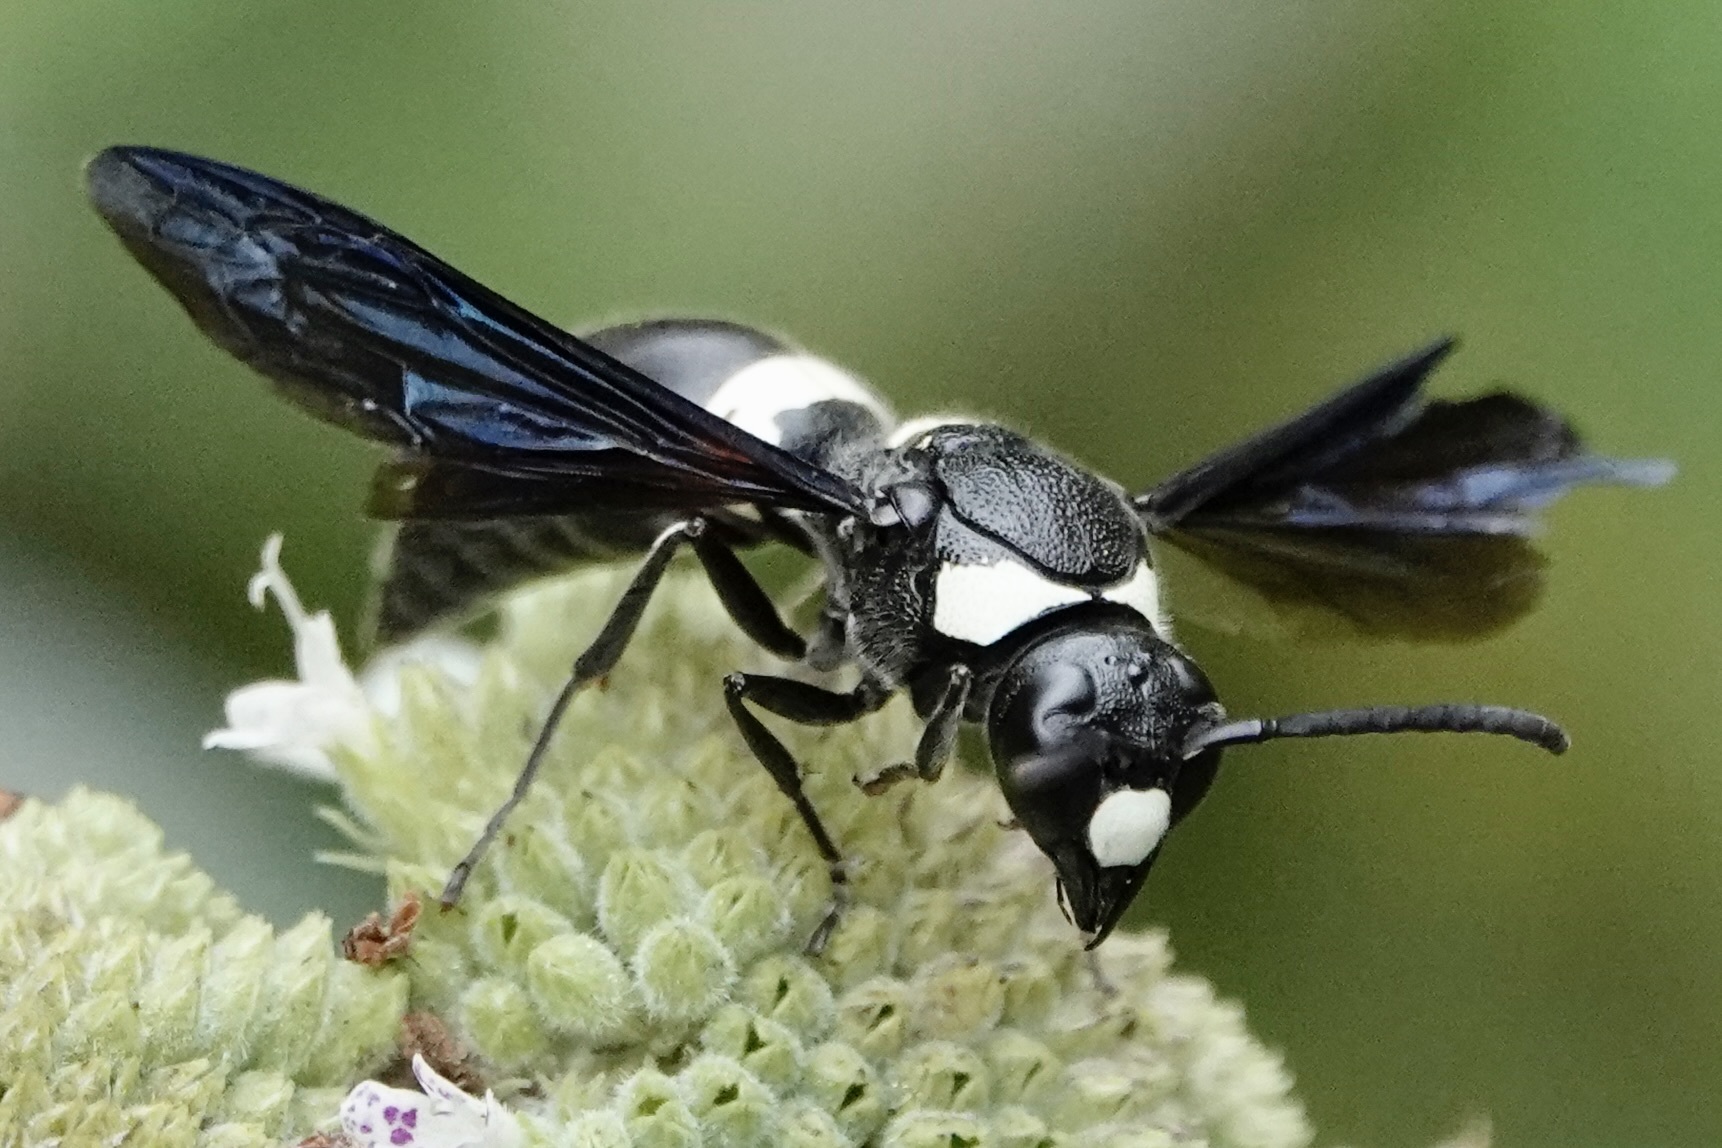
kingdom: Animalia
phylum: Arthropoda
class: Insecta
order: Hymenoptera
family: Eumenidae
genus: Monobia
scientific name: Monobia quadridens
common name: Four-toothed mason wasp
